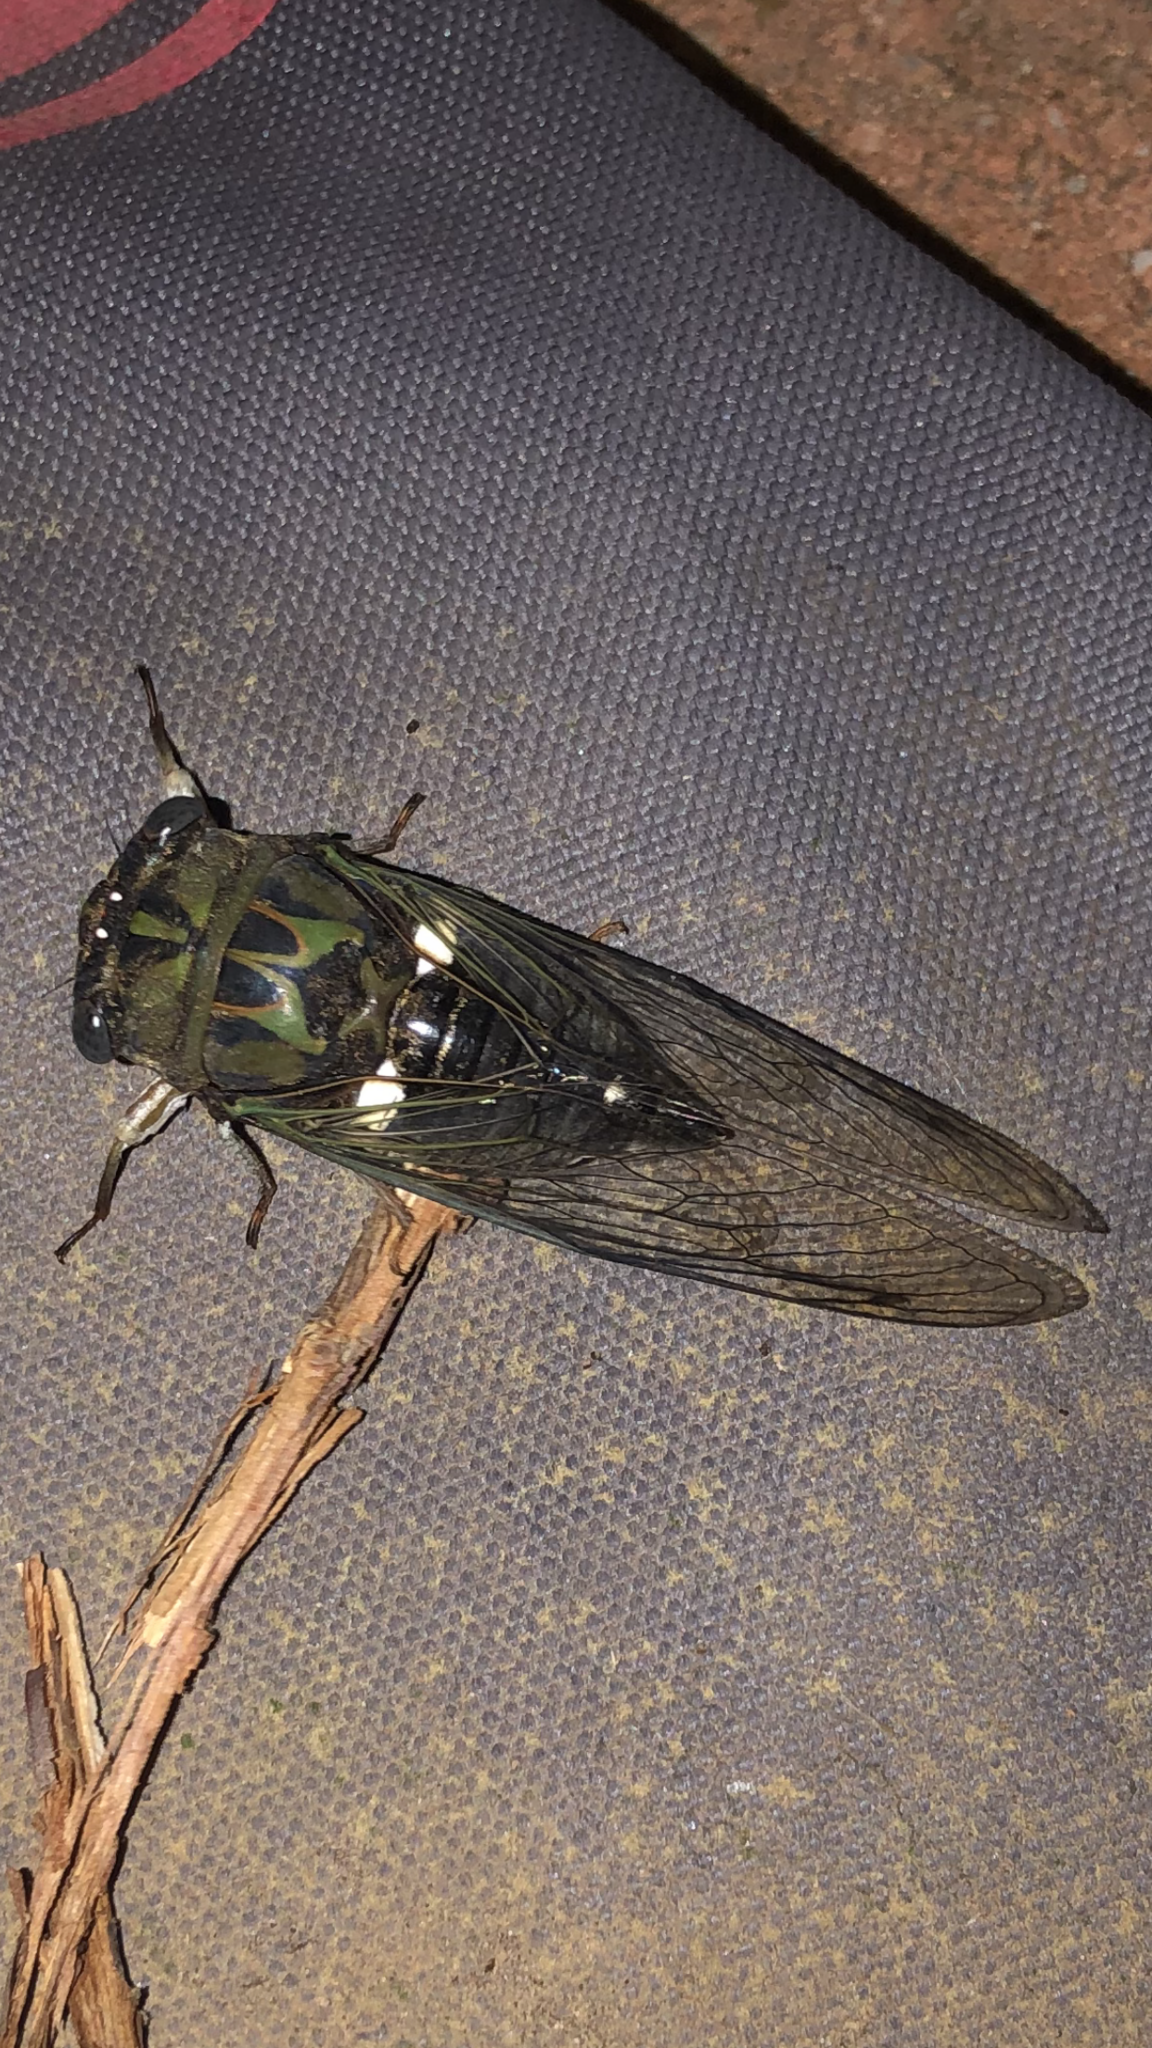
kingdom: Animalia
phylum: Arthropoda
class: Insecta
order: Hemiptera
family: Cicadidae
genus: Neotibicen
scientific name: Neotibicen pruinosus
